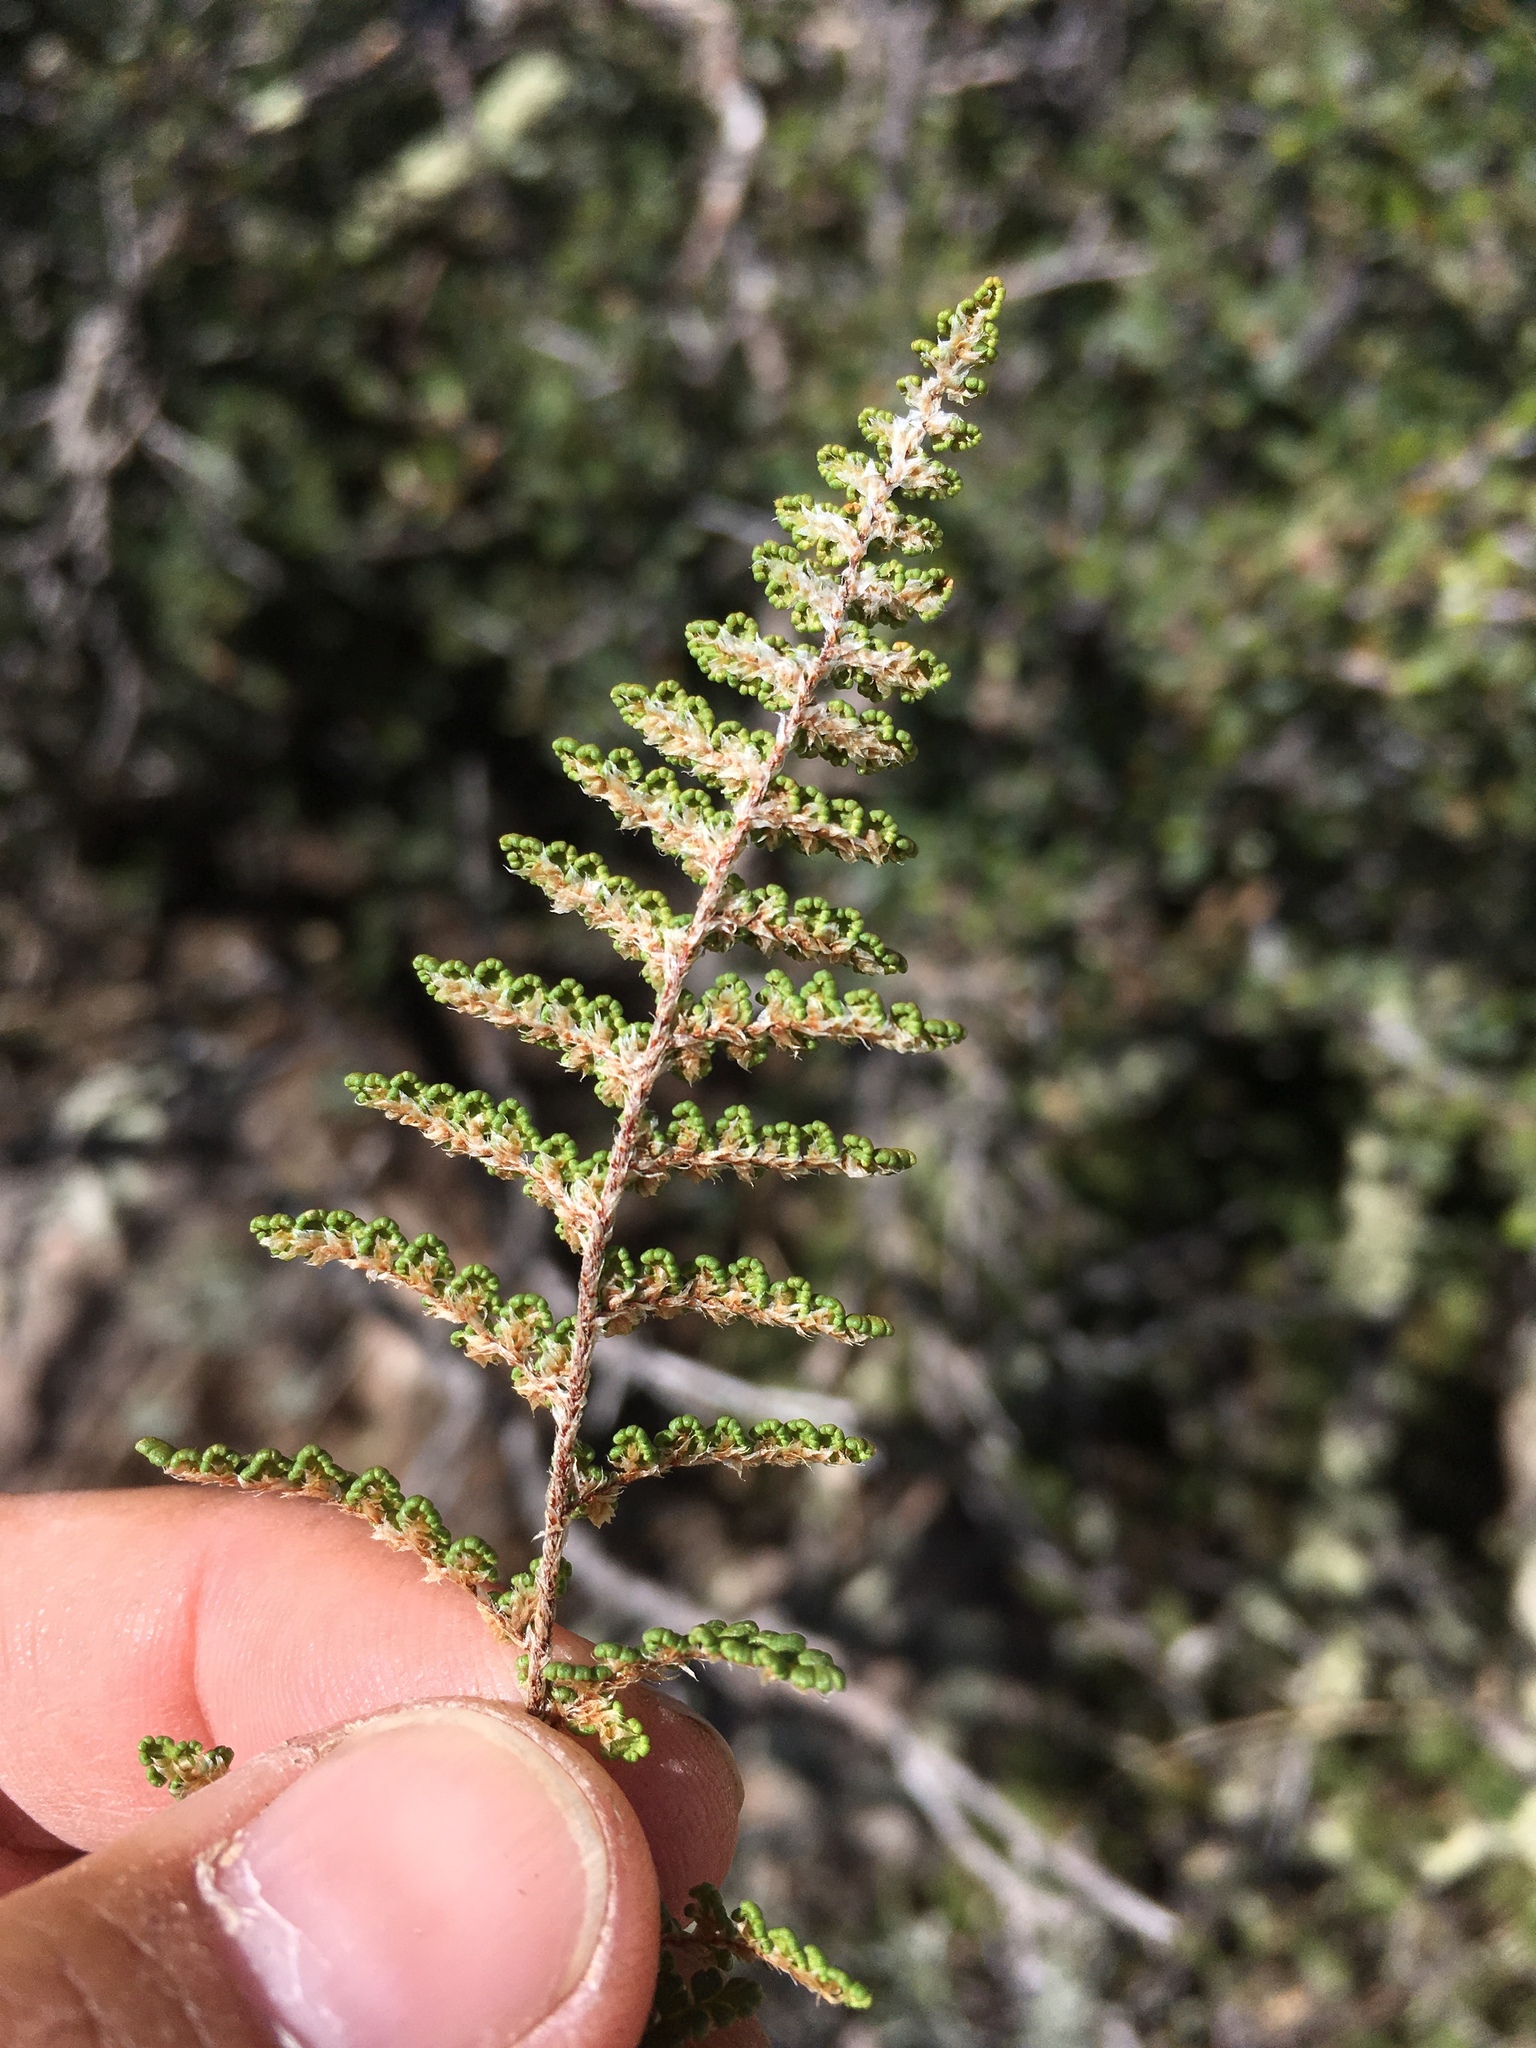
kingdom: Plantae
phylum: Tracheophyta
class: Polypodiopsida
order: Polypodiales
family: Pteridaceae
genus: Myriopteris
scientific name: Myriopteris fendleri
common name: Fendler's lip fern
